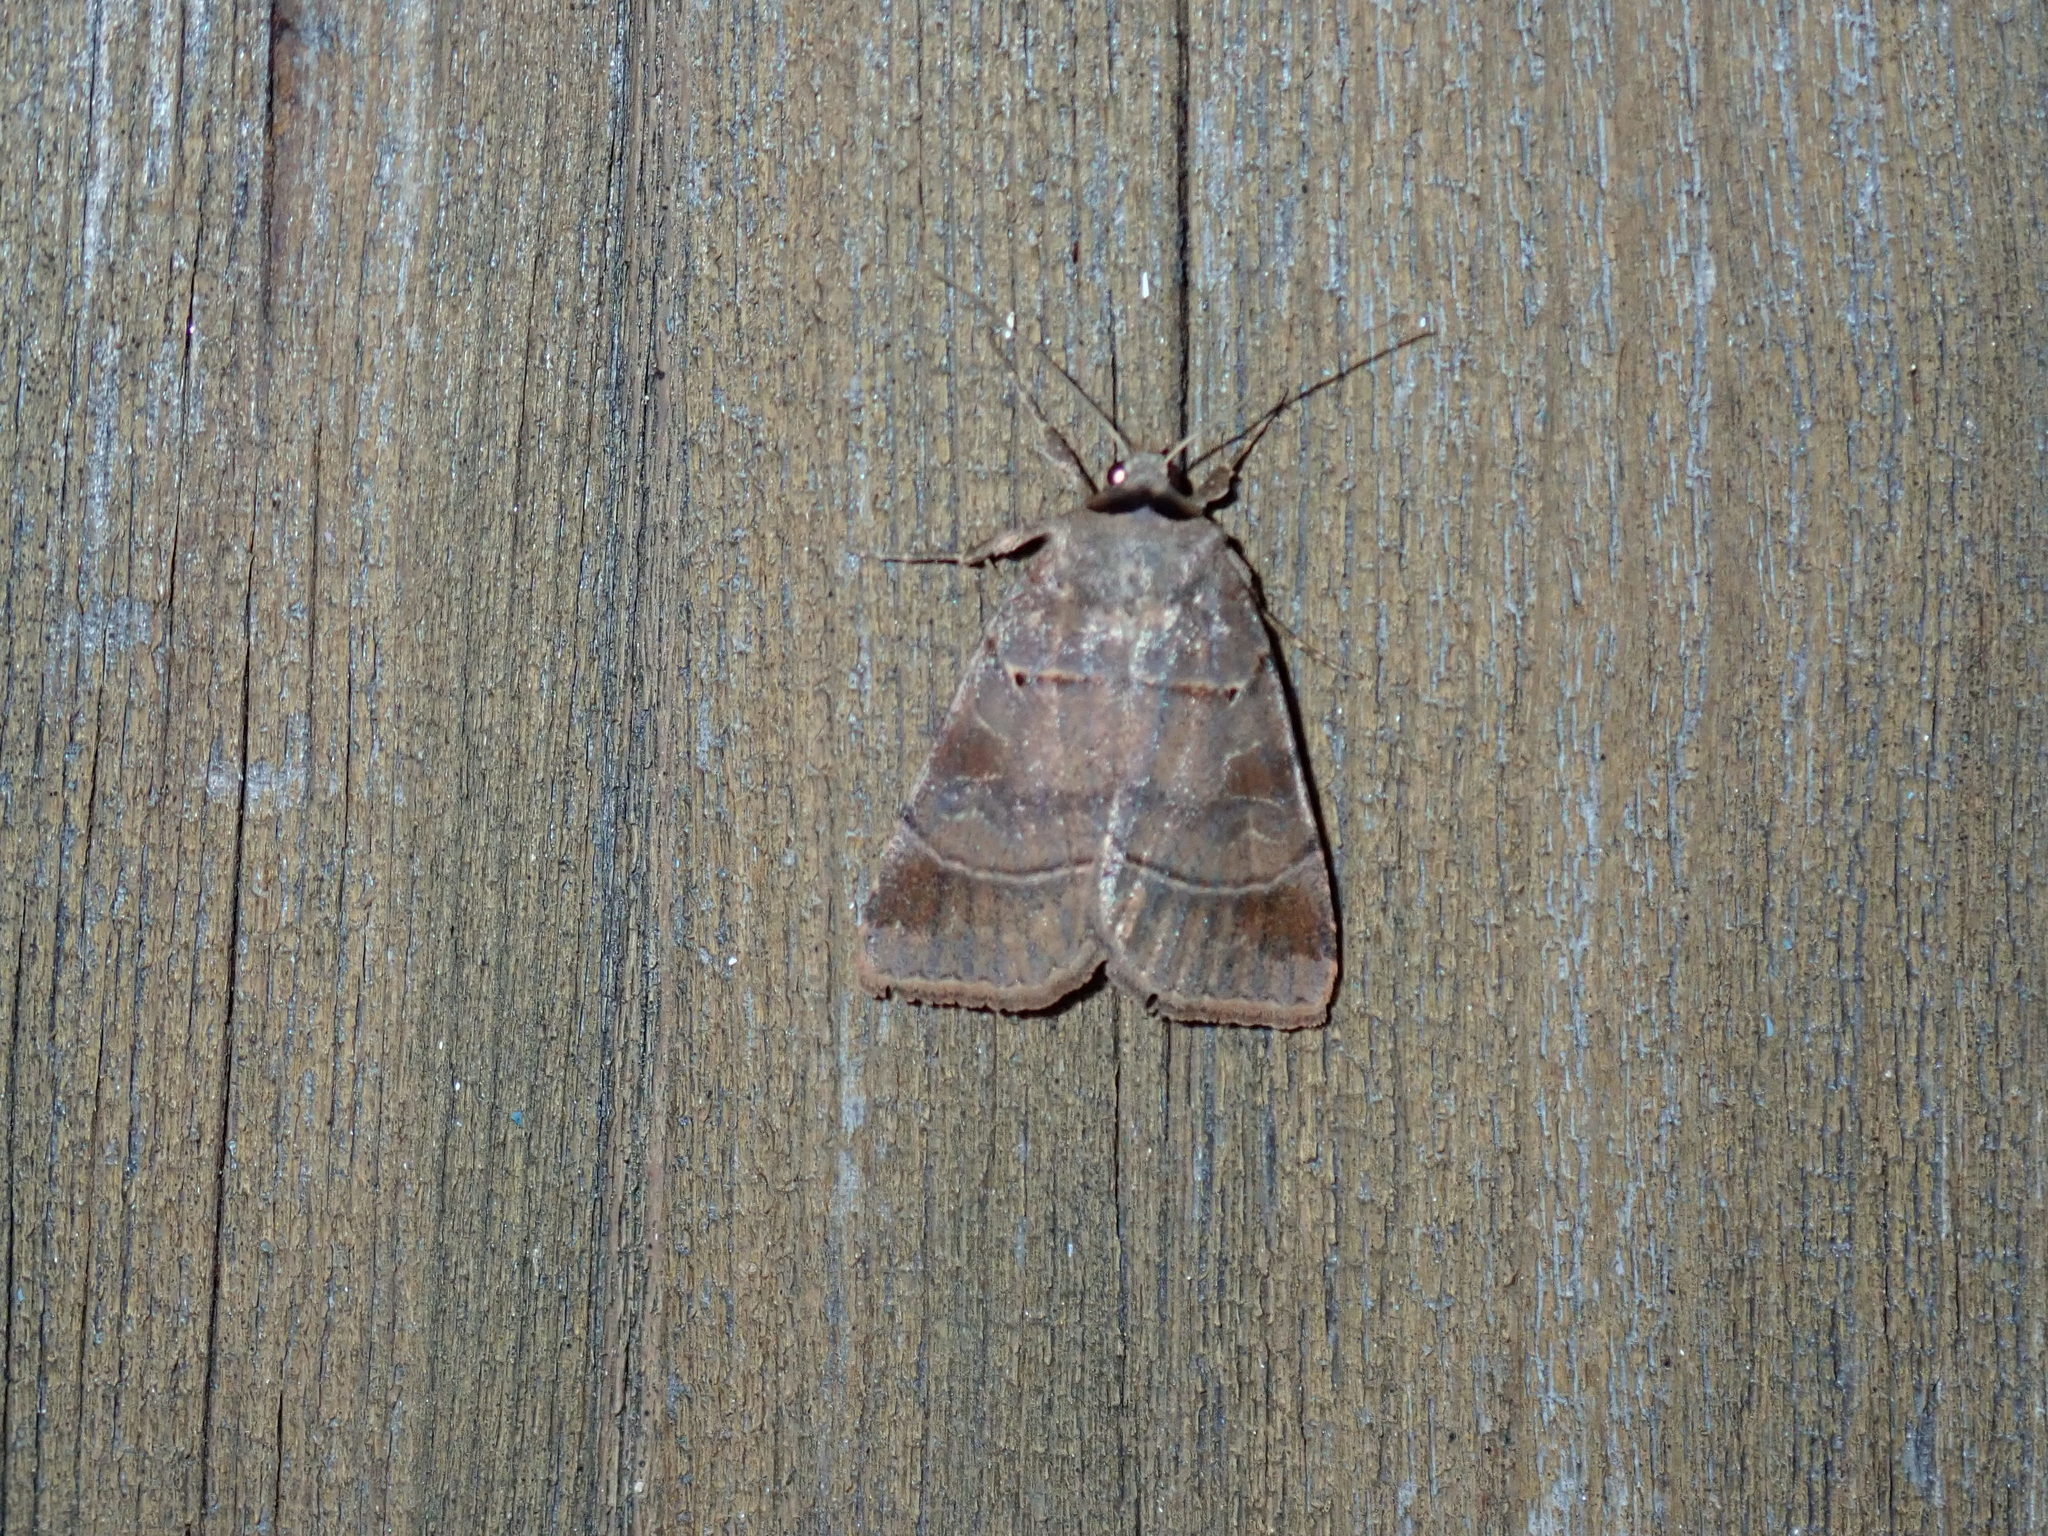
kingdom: Animalia
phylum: Arthropoda
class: Insecta
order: Lepidoptera
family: Noctuidae
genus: Agnorisma
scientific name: Agnorisma badinodis
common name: Pale-banded dart
